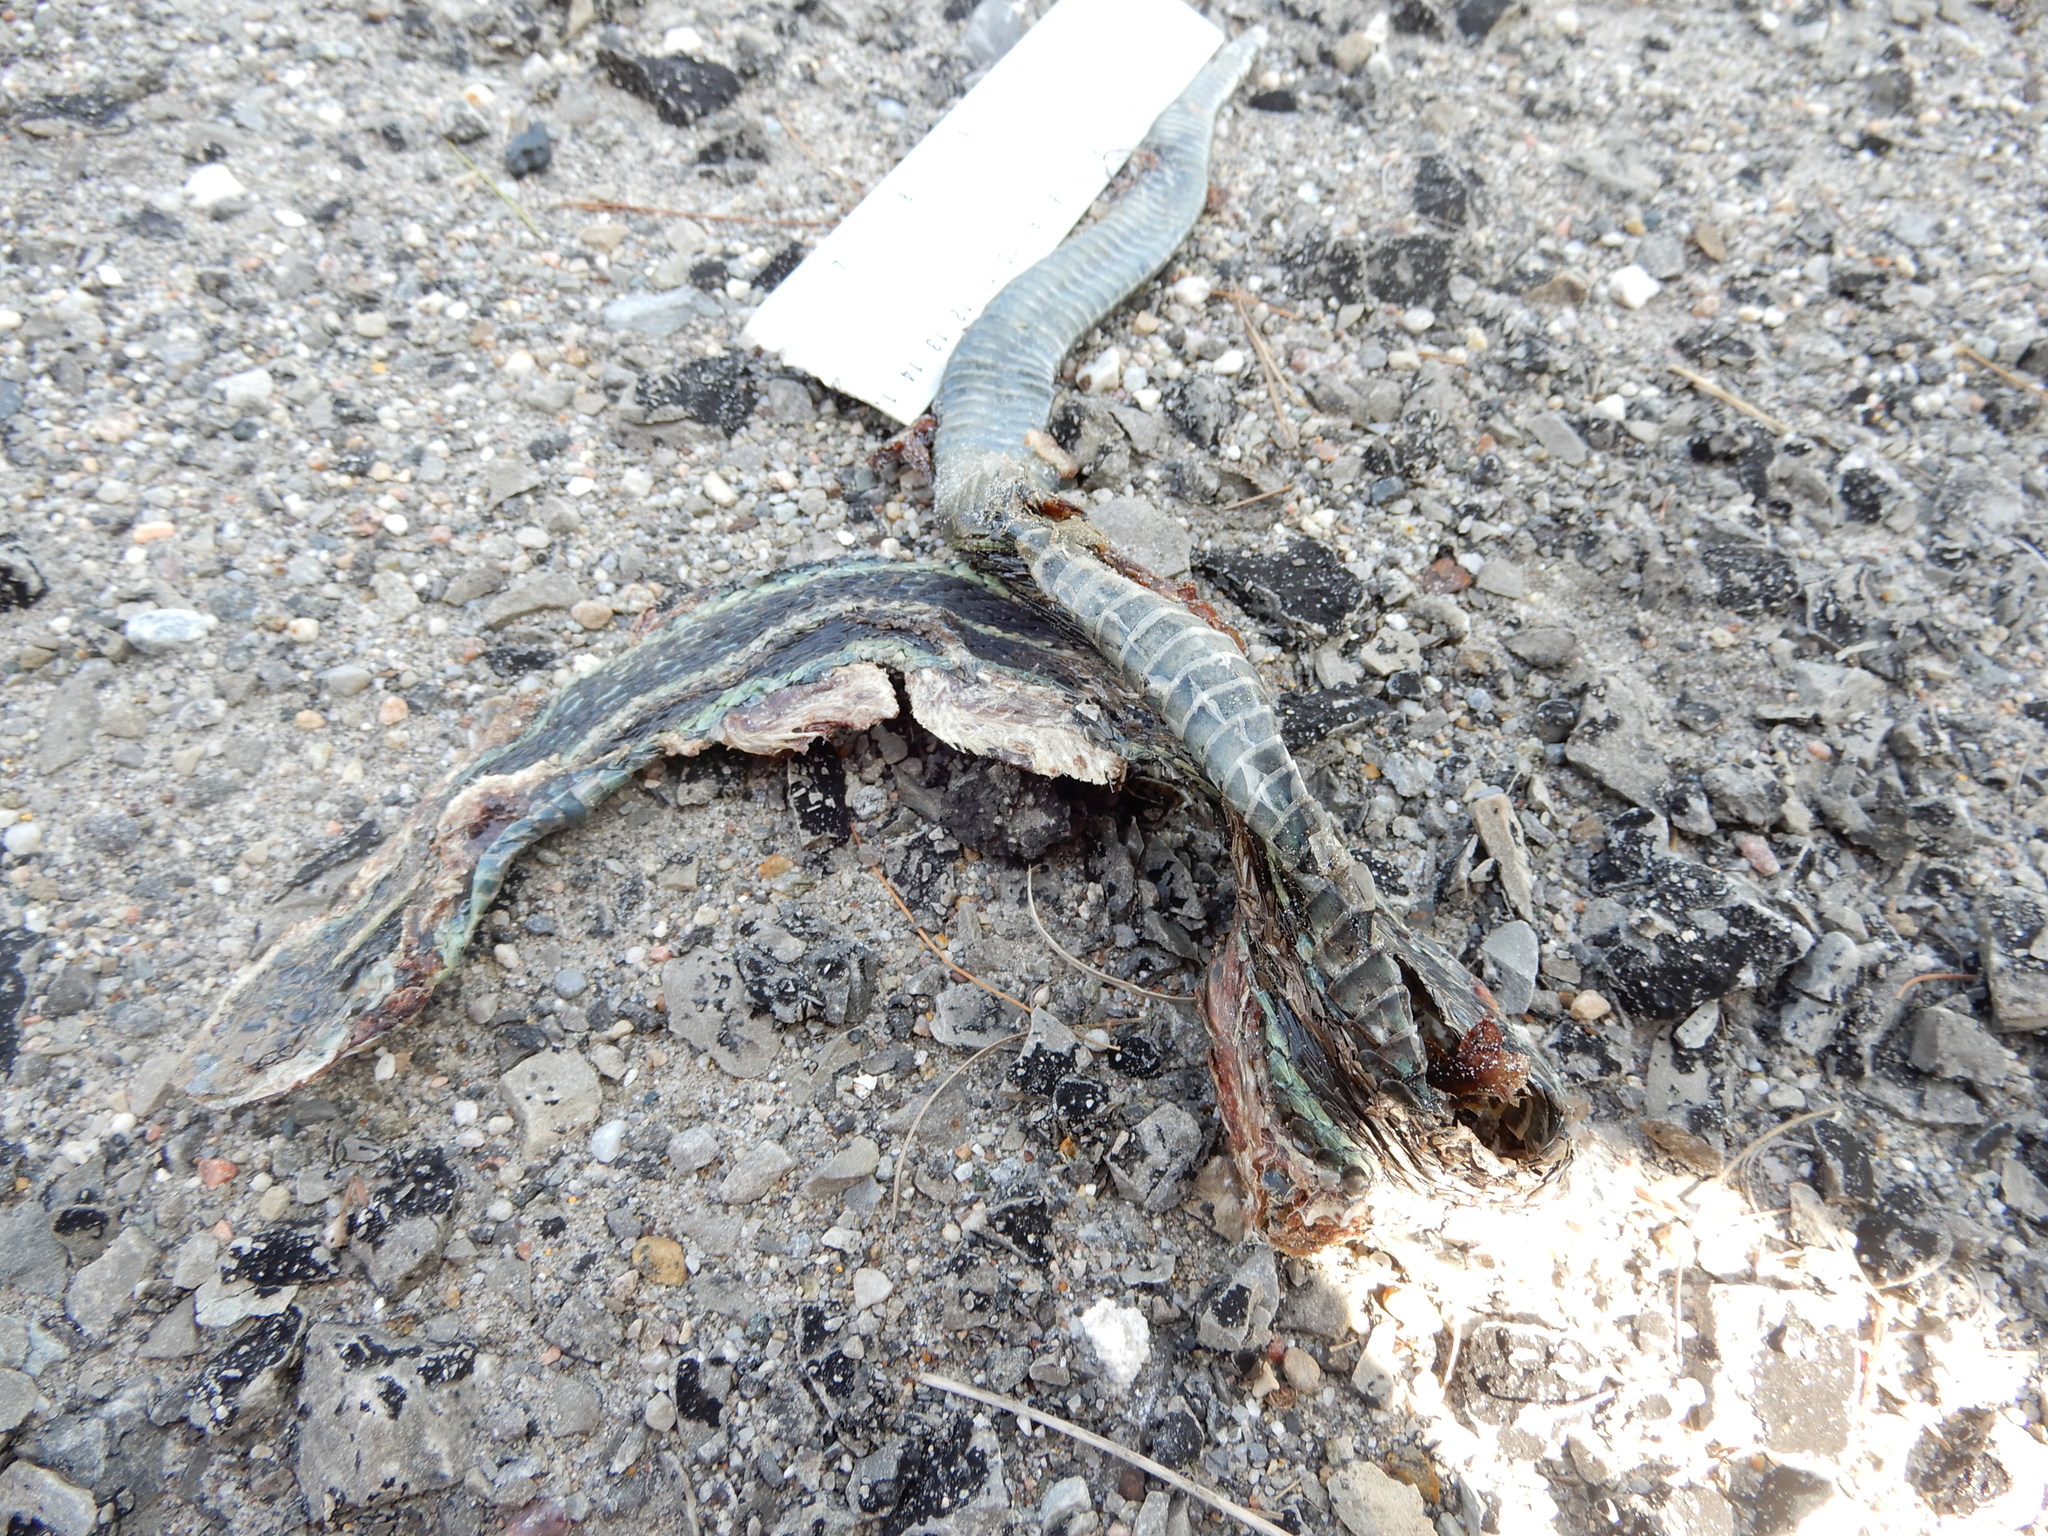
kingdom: Animalia
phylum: Chordata
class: Squamata
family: Colubridae
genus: Thamnophis
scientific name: Thamnophis sirtalis
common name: Common garter snake
